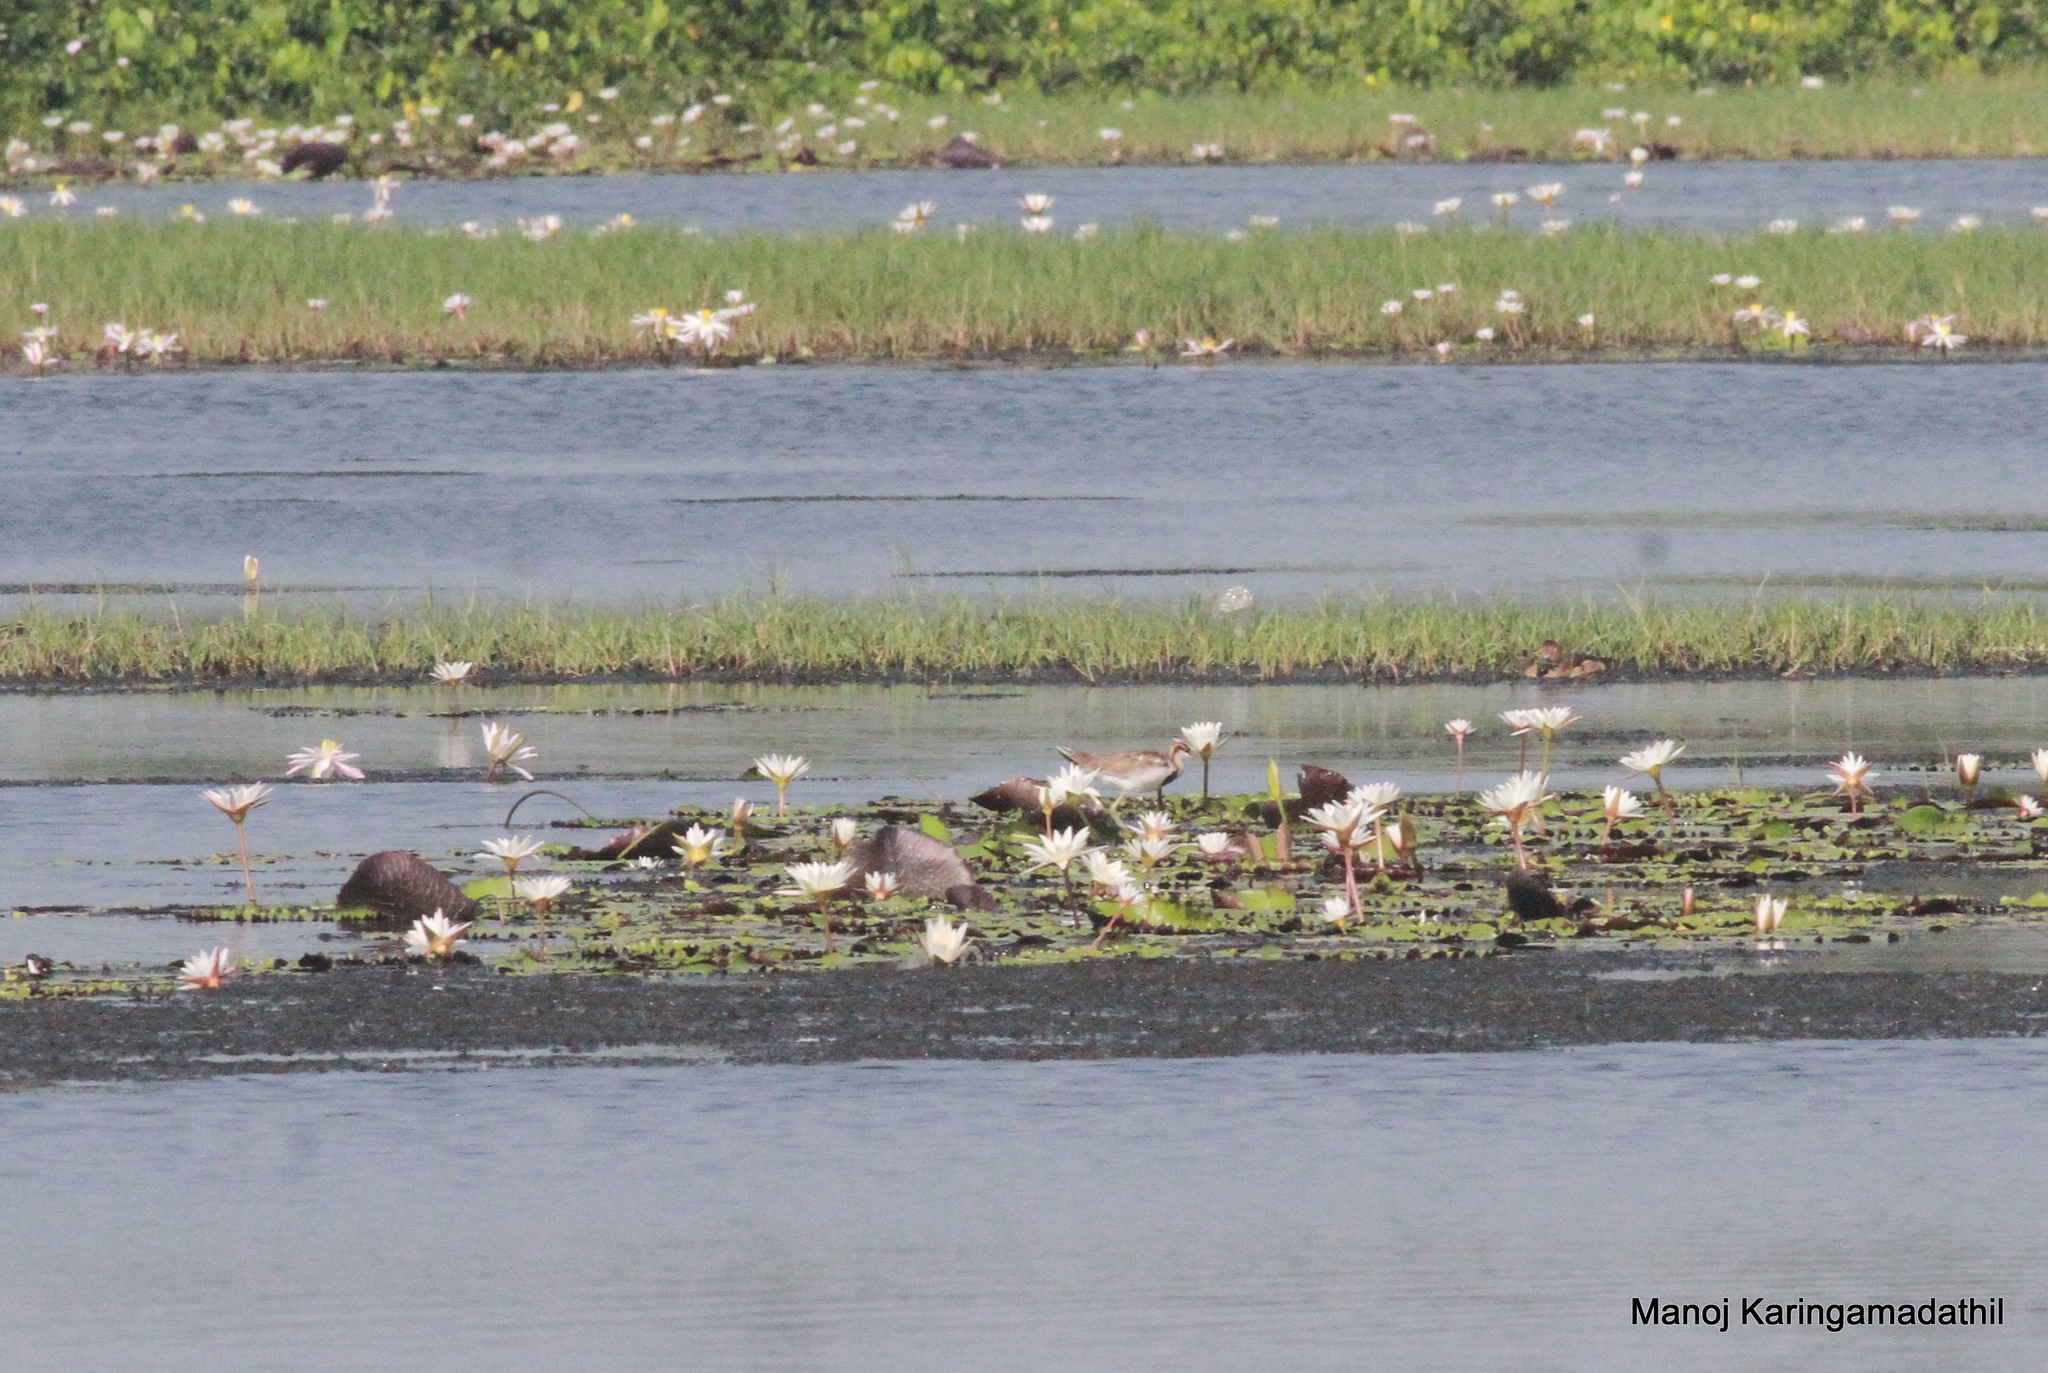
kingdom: Animalia
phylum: Chordata
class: Aves
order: Charadriiformes
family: Jacanidae
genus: Hydrophasianus
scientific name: Hydrophasianus chirurgus
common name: Pheasant-tailed jacana
